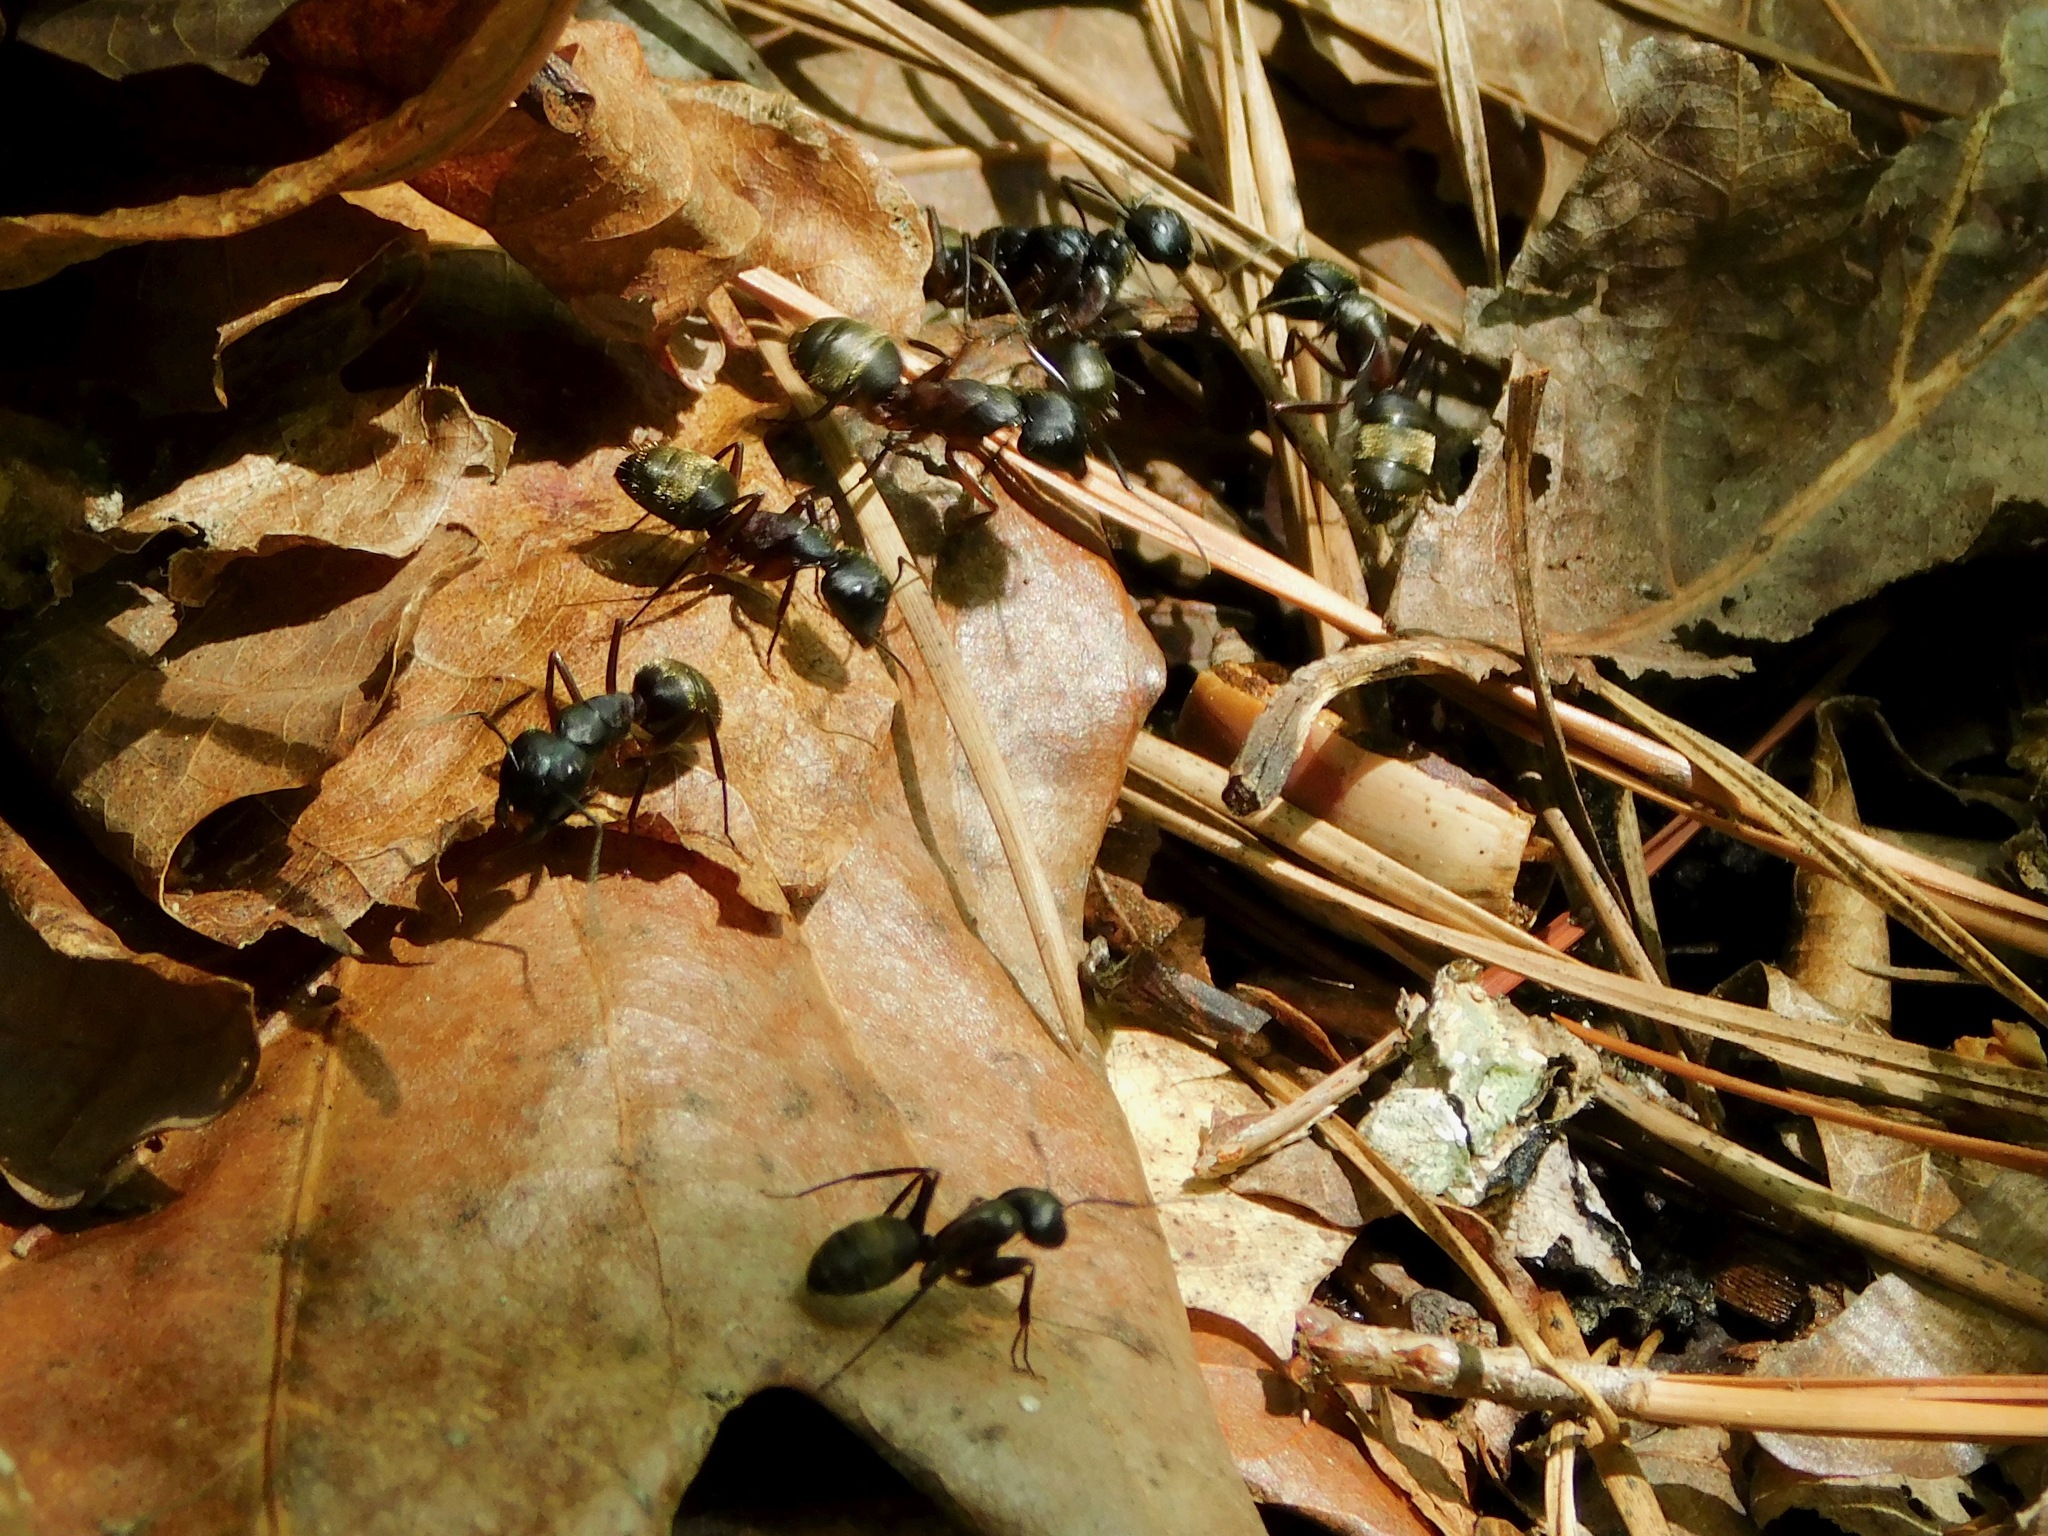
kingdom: Animalia
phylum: Arthropoda
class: Insecta
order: Hymenoptera
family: Formicidae
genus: Camponotus
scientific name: Camponotus pennsylvanicus
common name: Black carpenter ant
